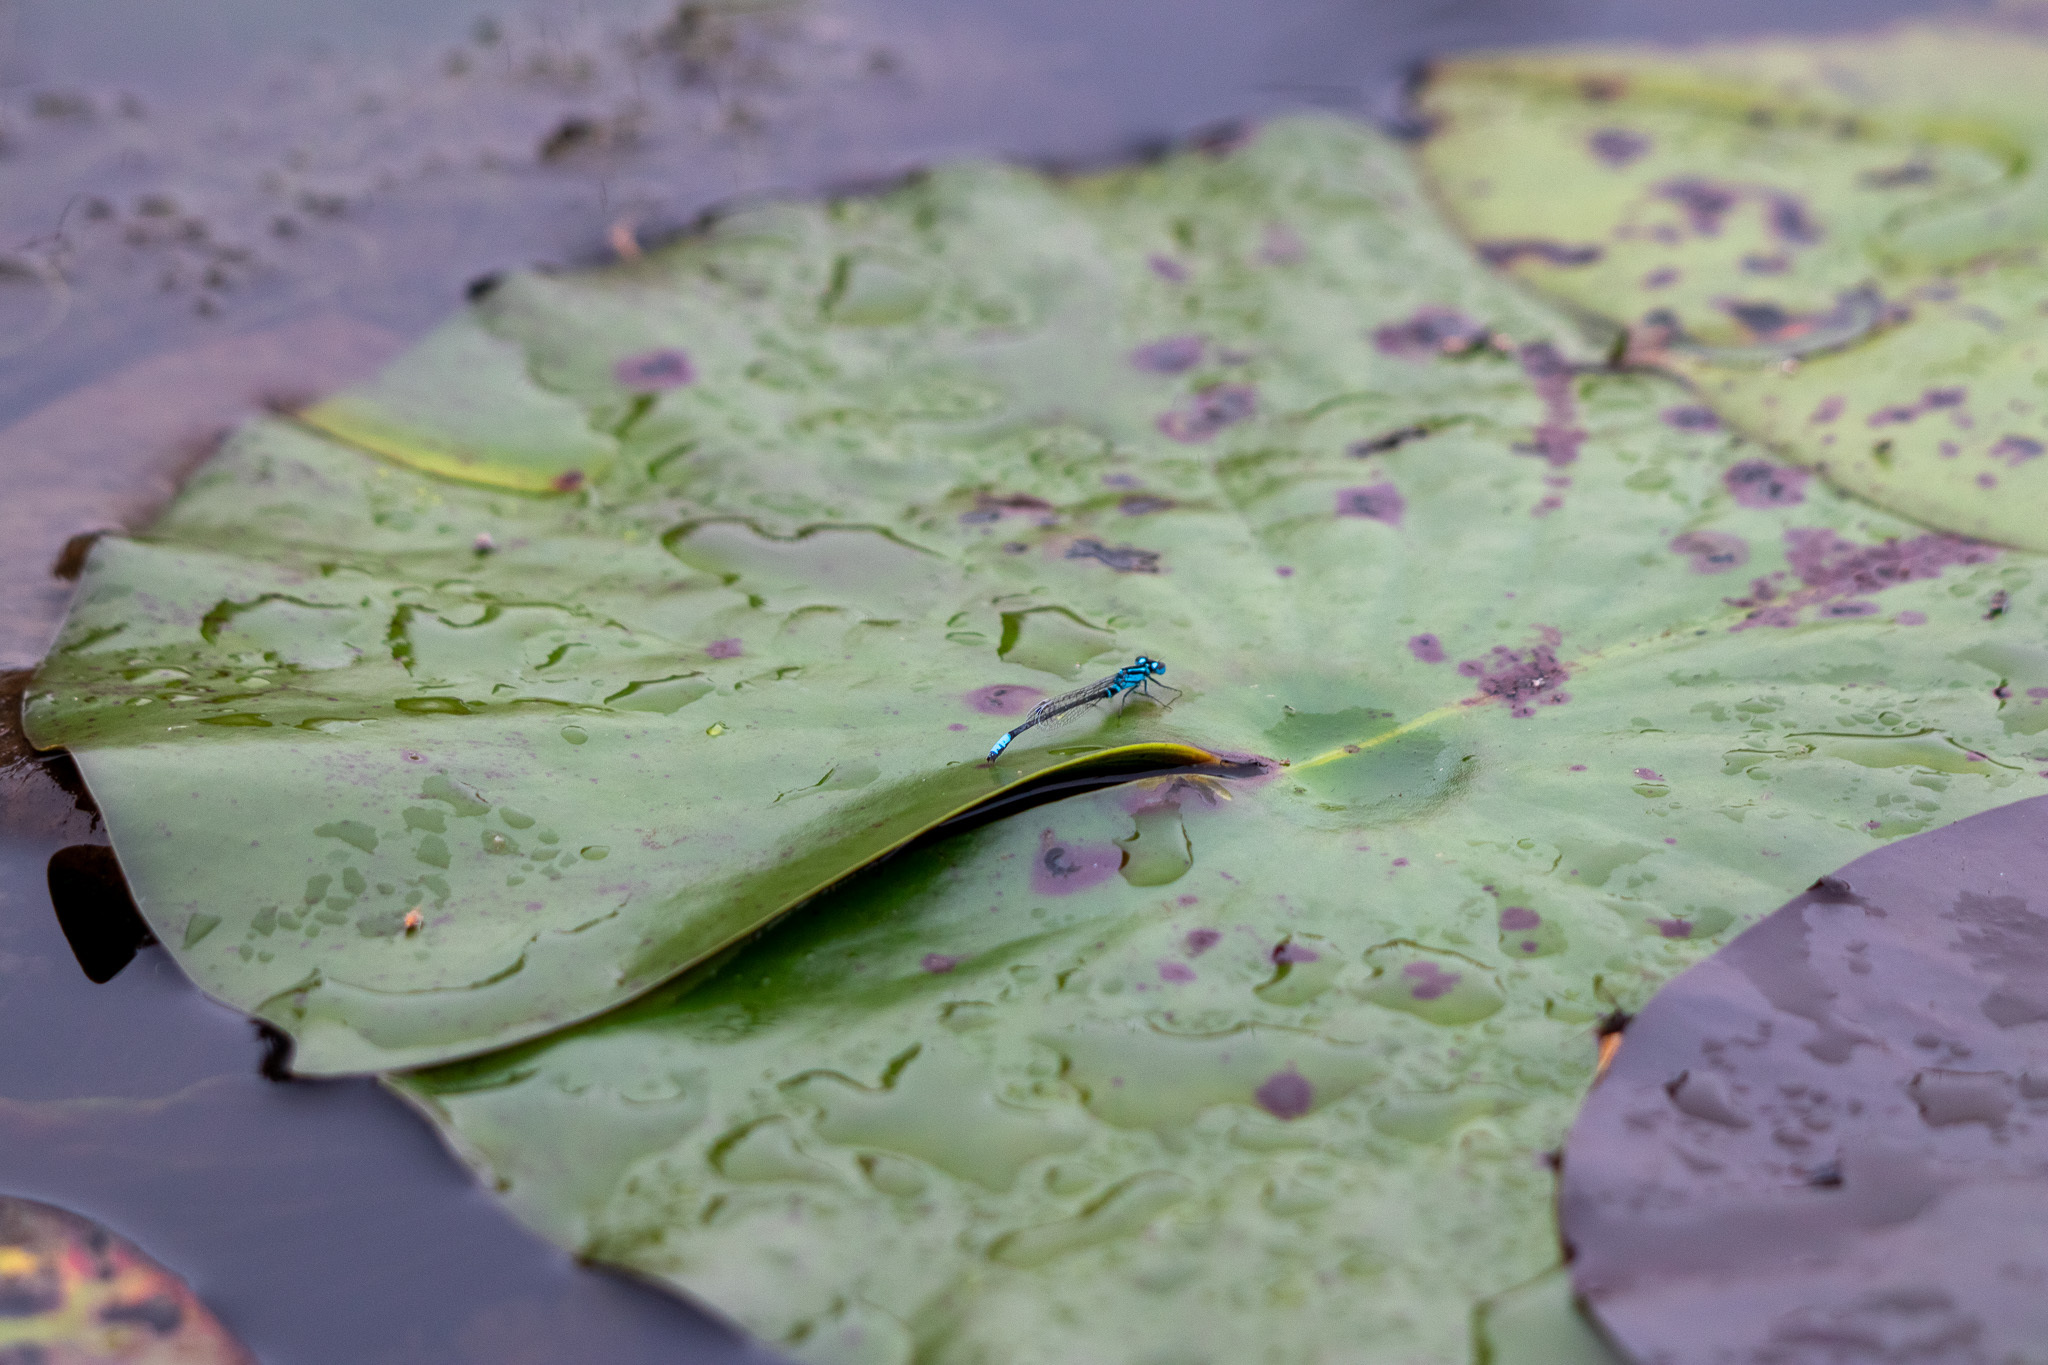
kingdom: Animalia
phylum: Arthropoda
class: Insecta
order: Odonata
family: Coenagrionidae
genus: Ischnura
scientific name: Ischnura kellicotti
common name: Lilypad forktail
